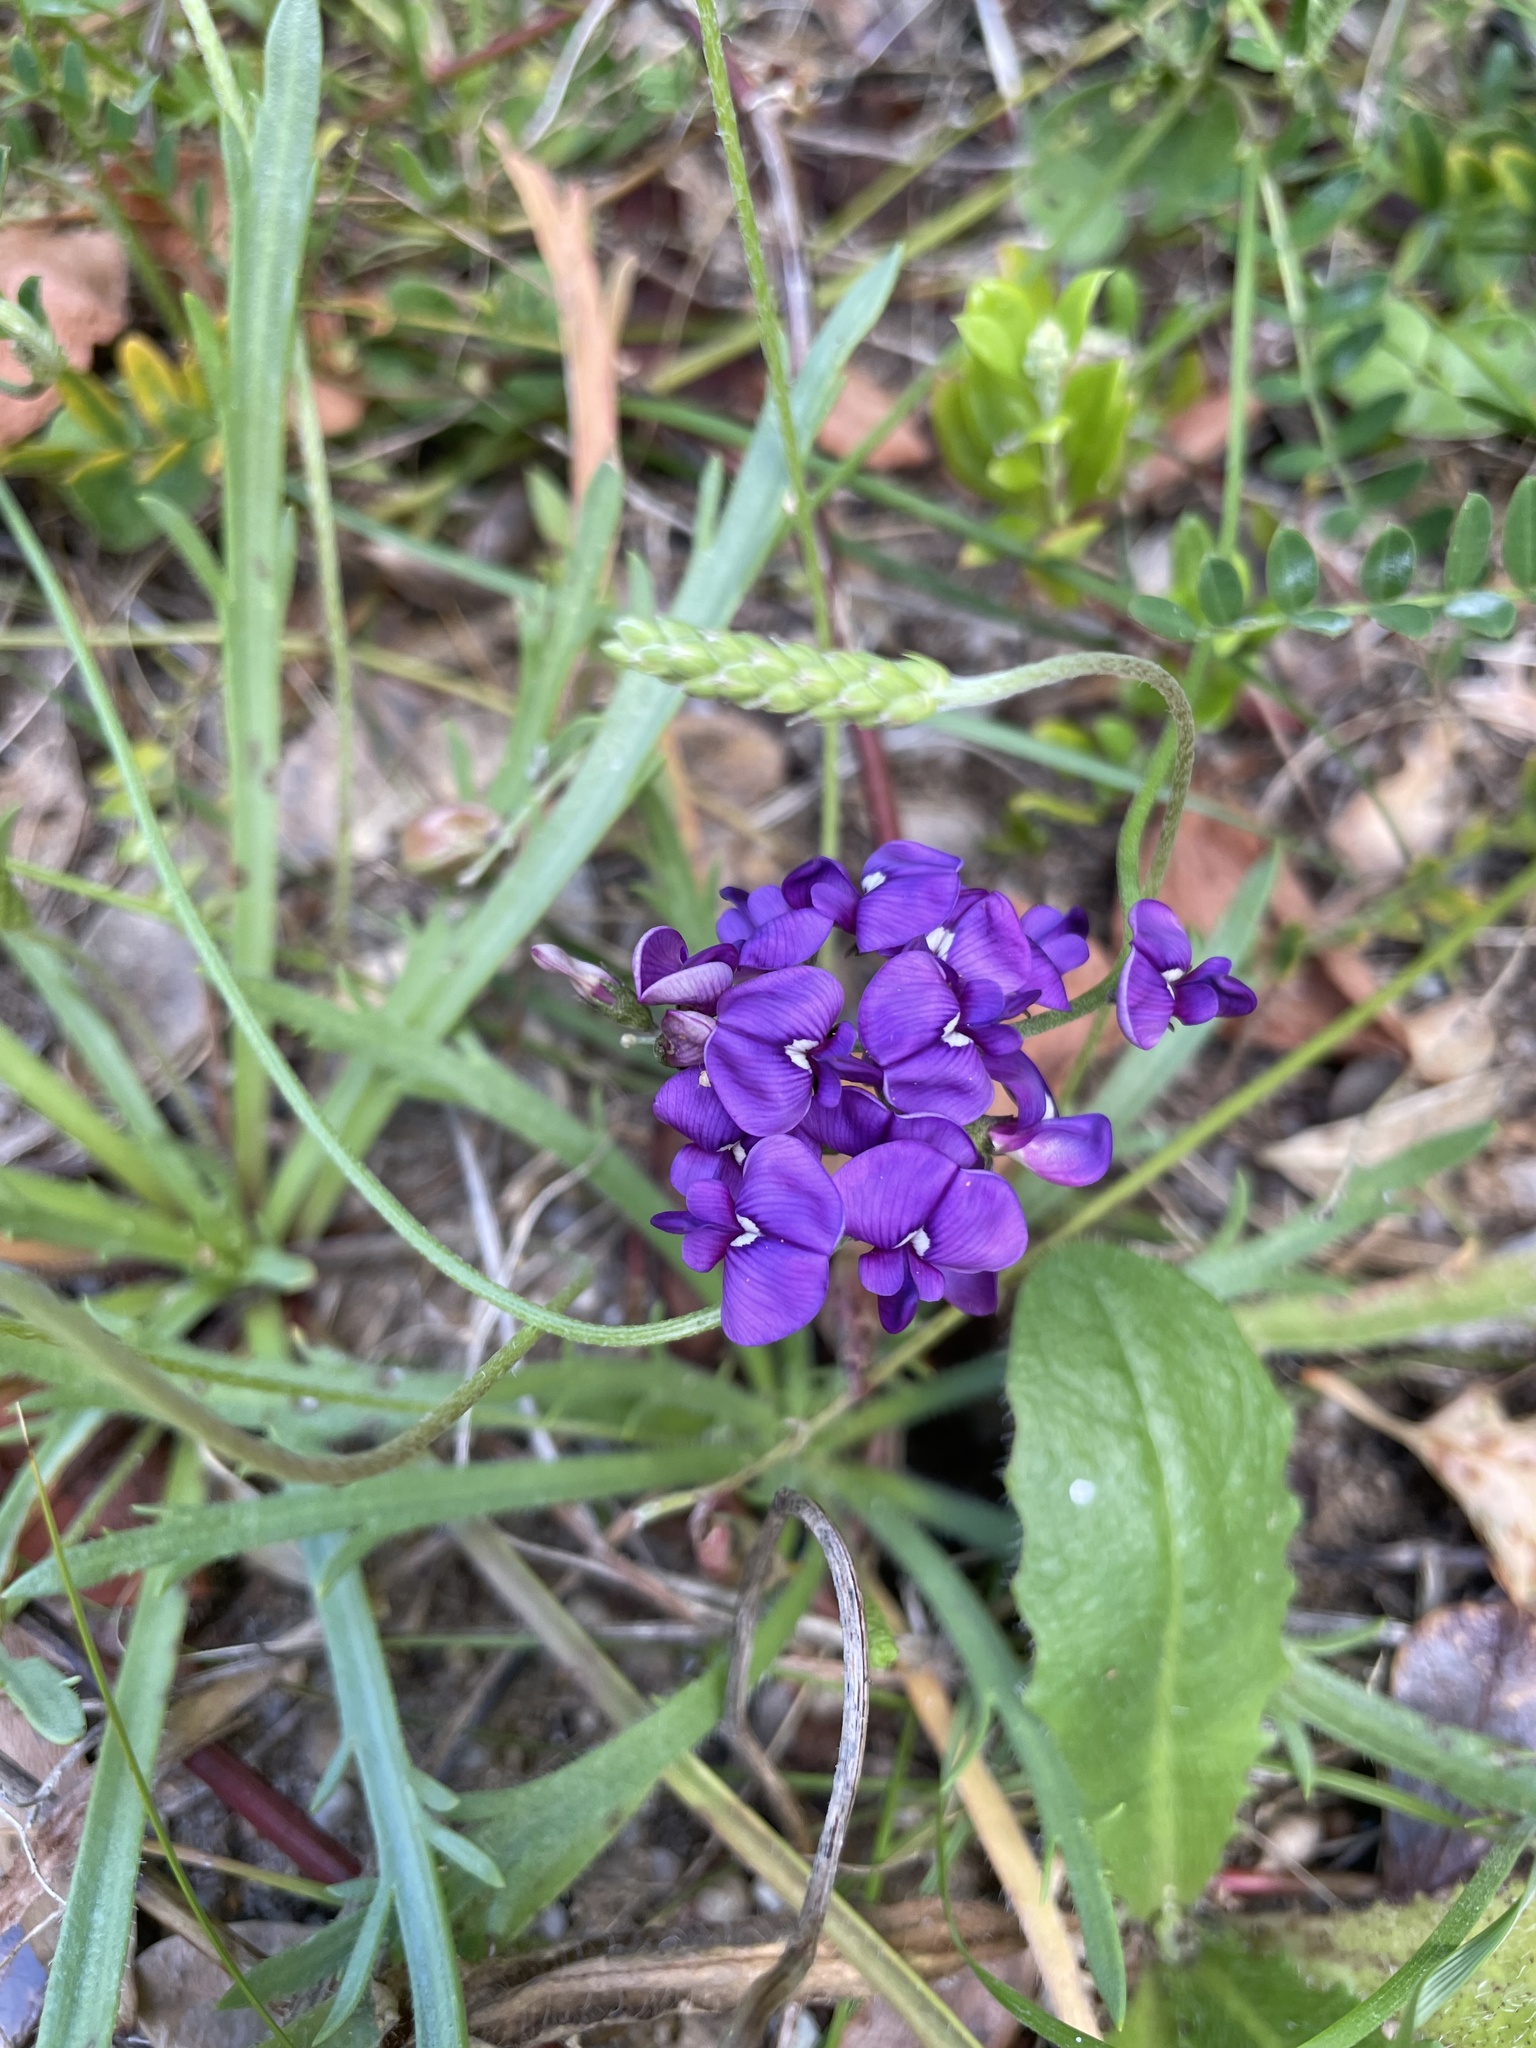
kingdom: Plantae
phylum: Tracheophyta
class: Magnoliopsida
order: Fabales
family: Fabaceae
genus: Swainsona
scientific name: Swainsona lessertiifolia
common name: Bog-pea
